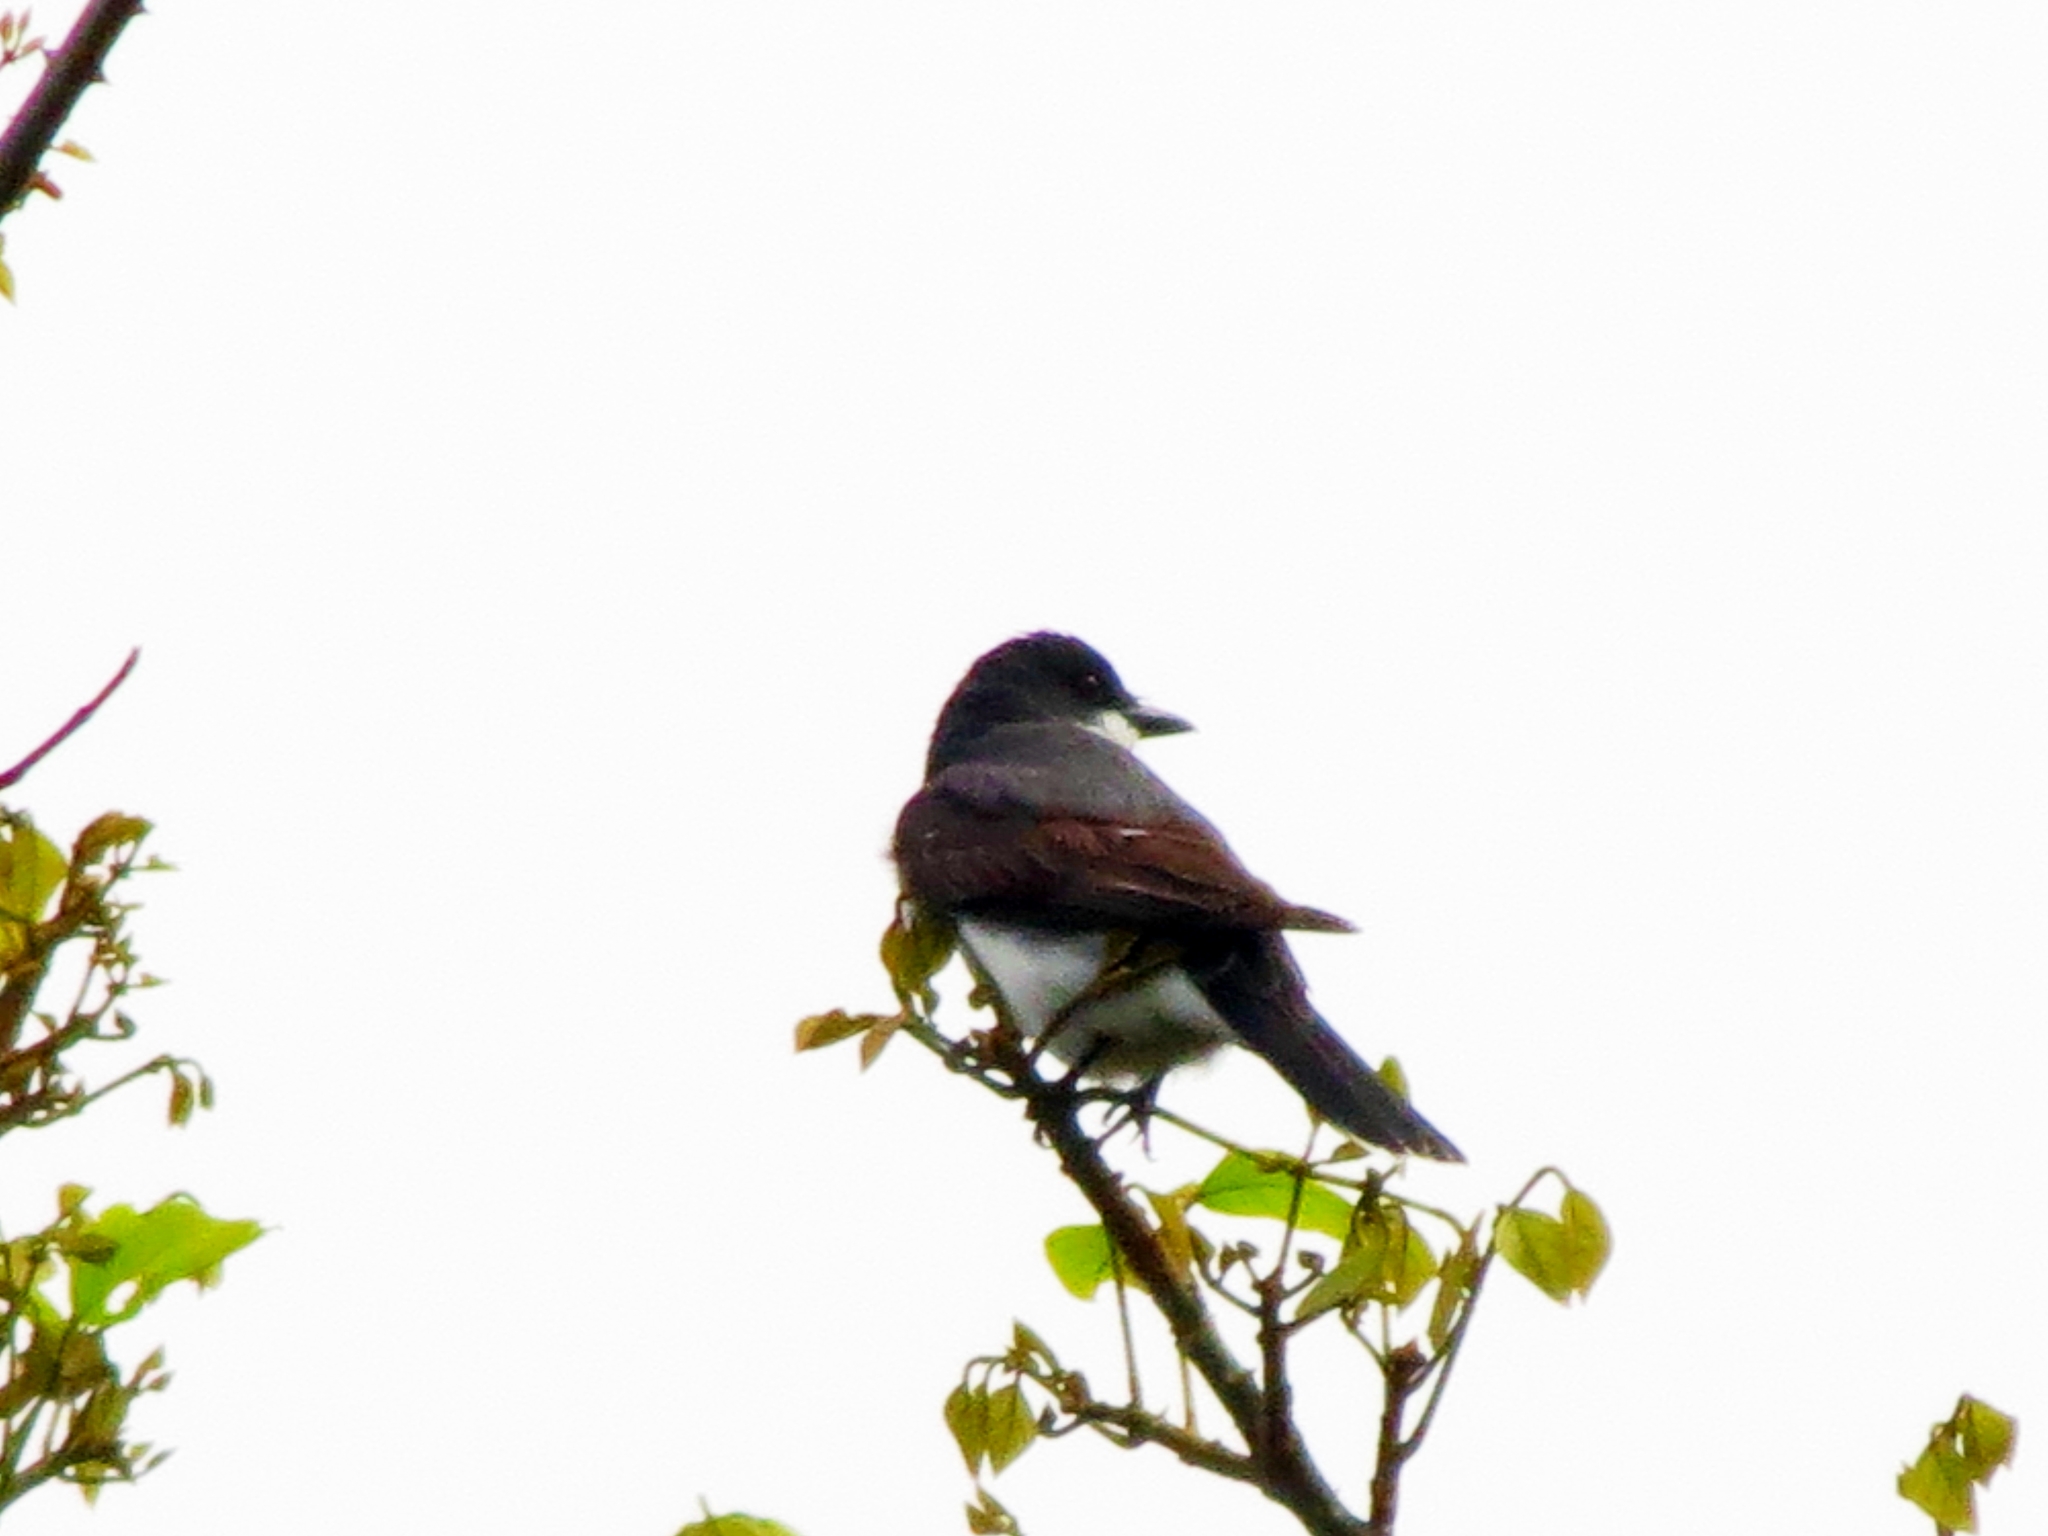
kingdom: Animalia
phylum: Chordata
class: Aves
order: Passeriformes
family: Tyrannidae
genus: Tyrannus
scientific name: Tyrannus tyrannus
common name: Eastern kingbird
